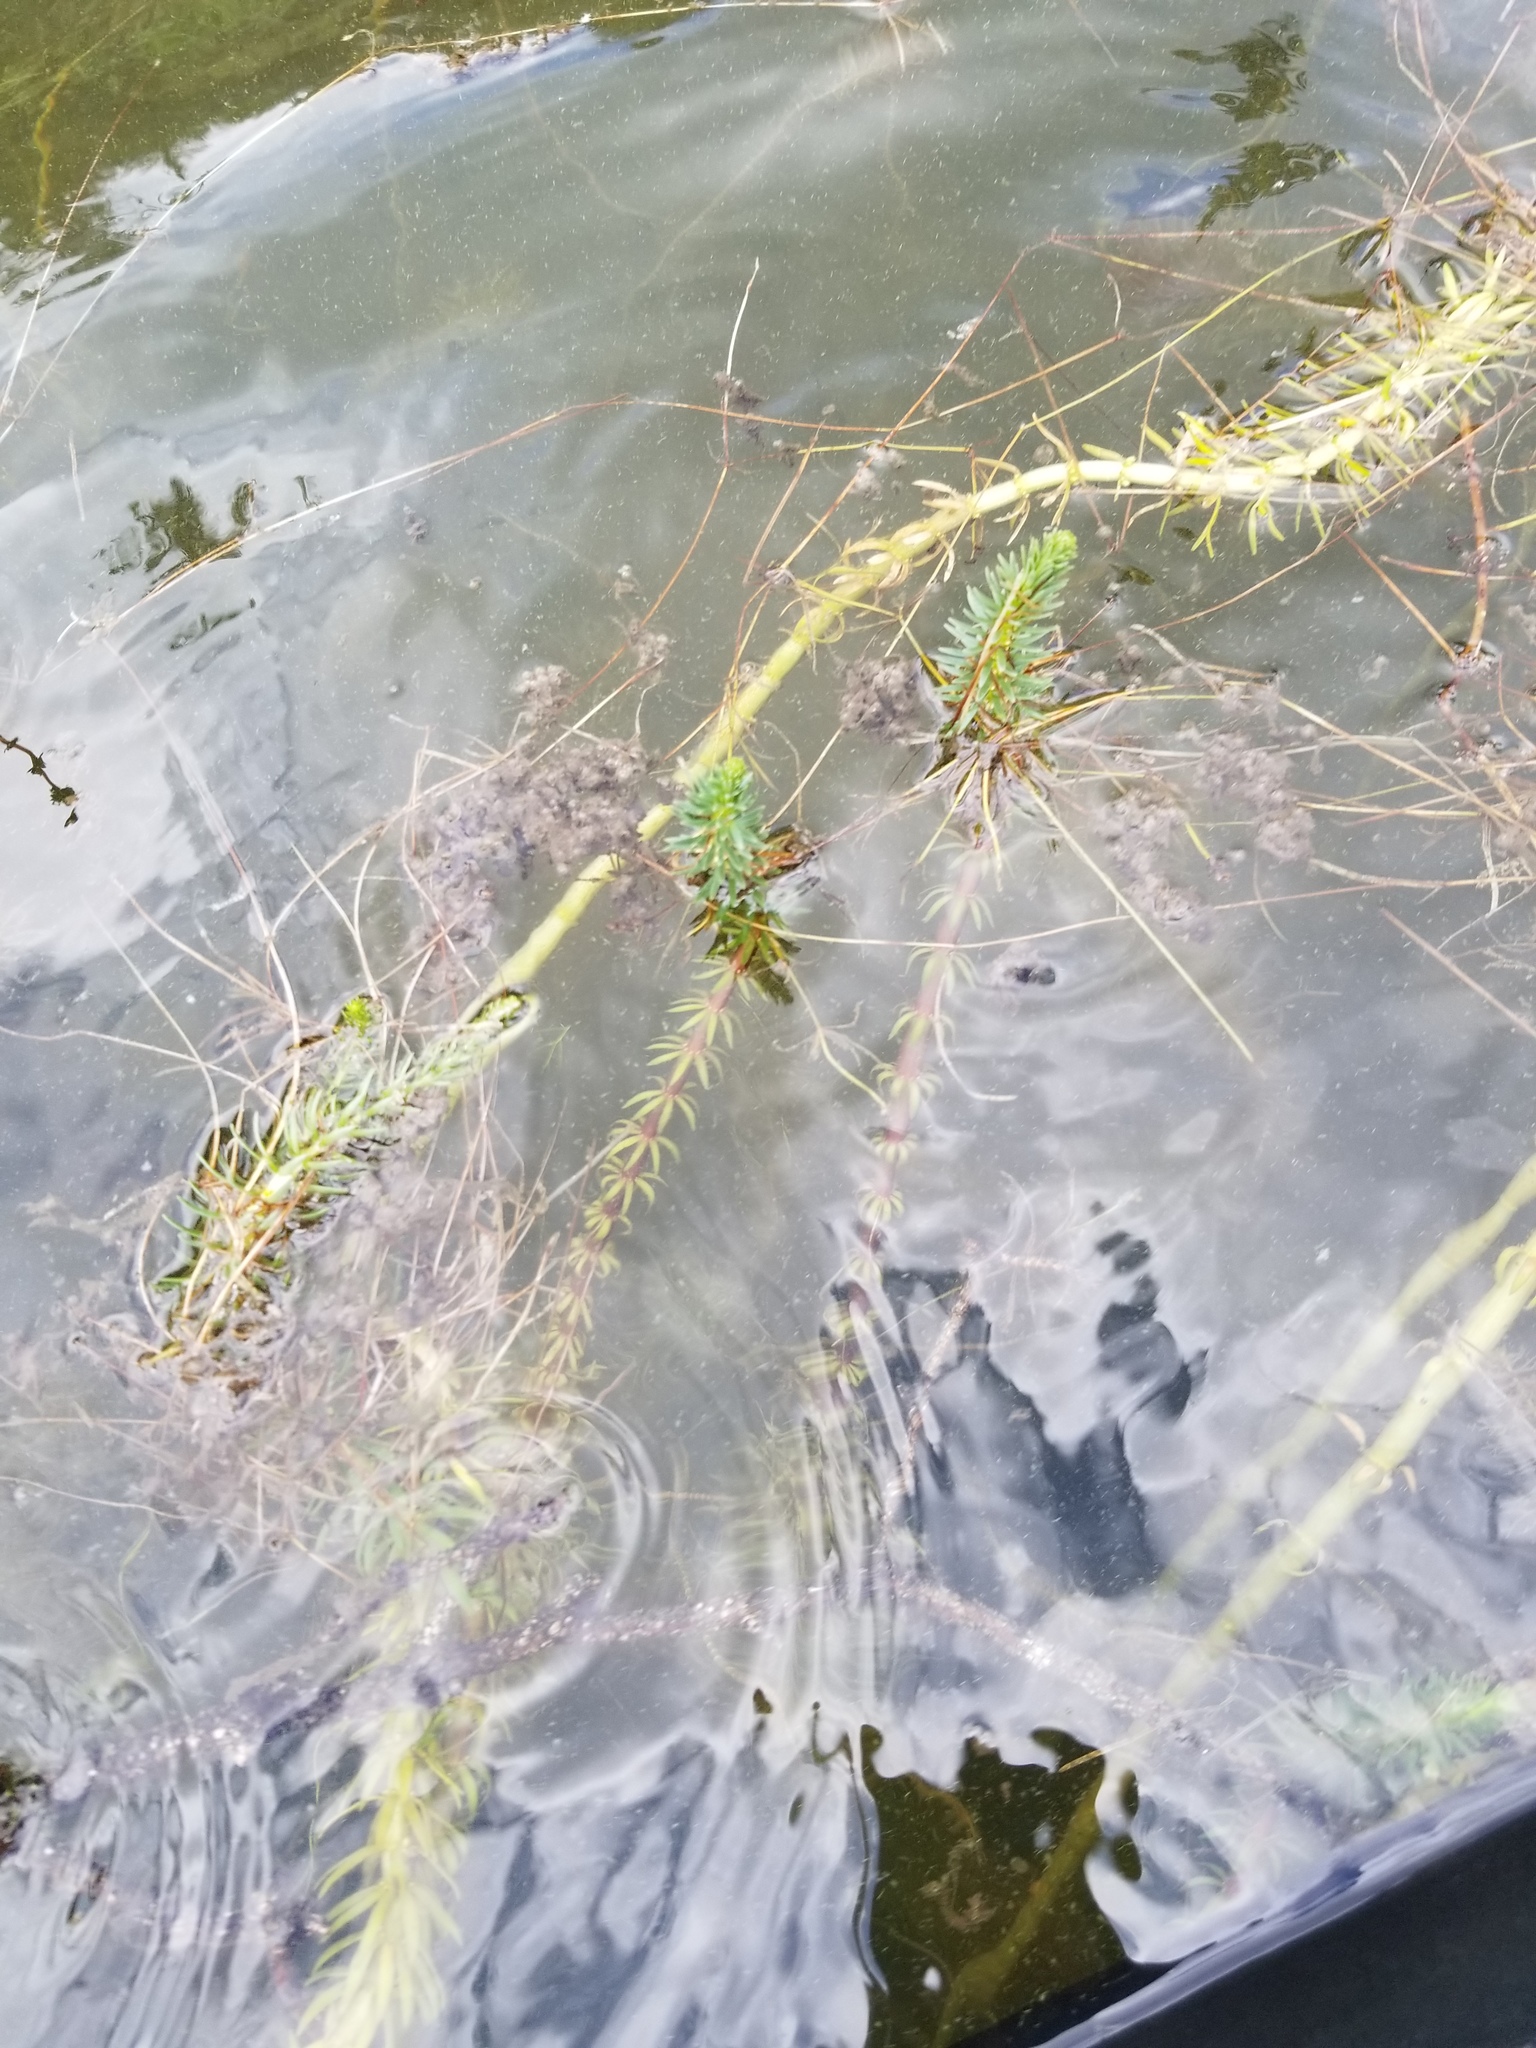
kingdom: Plantae
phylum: Tracheophyta
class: Magnoliopsida
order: Lamiales
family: Plantaginaceae
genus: Hippuris
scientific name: Hippuris vulgaris
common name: Mare's-tail
